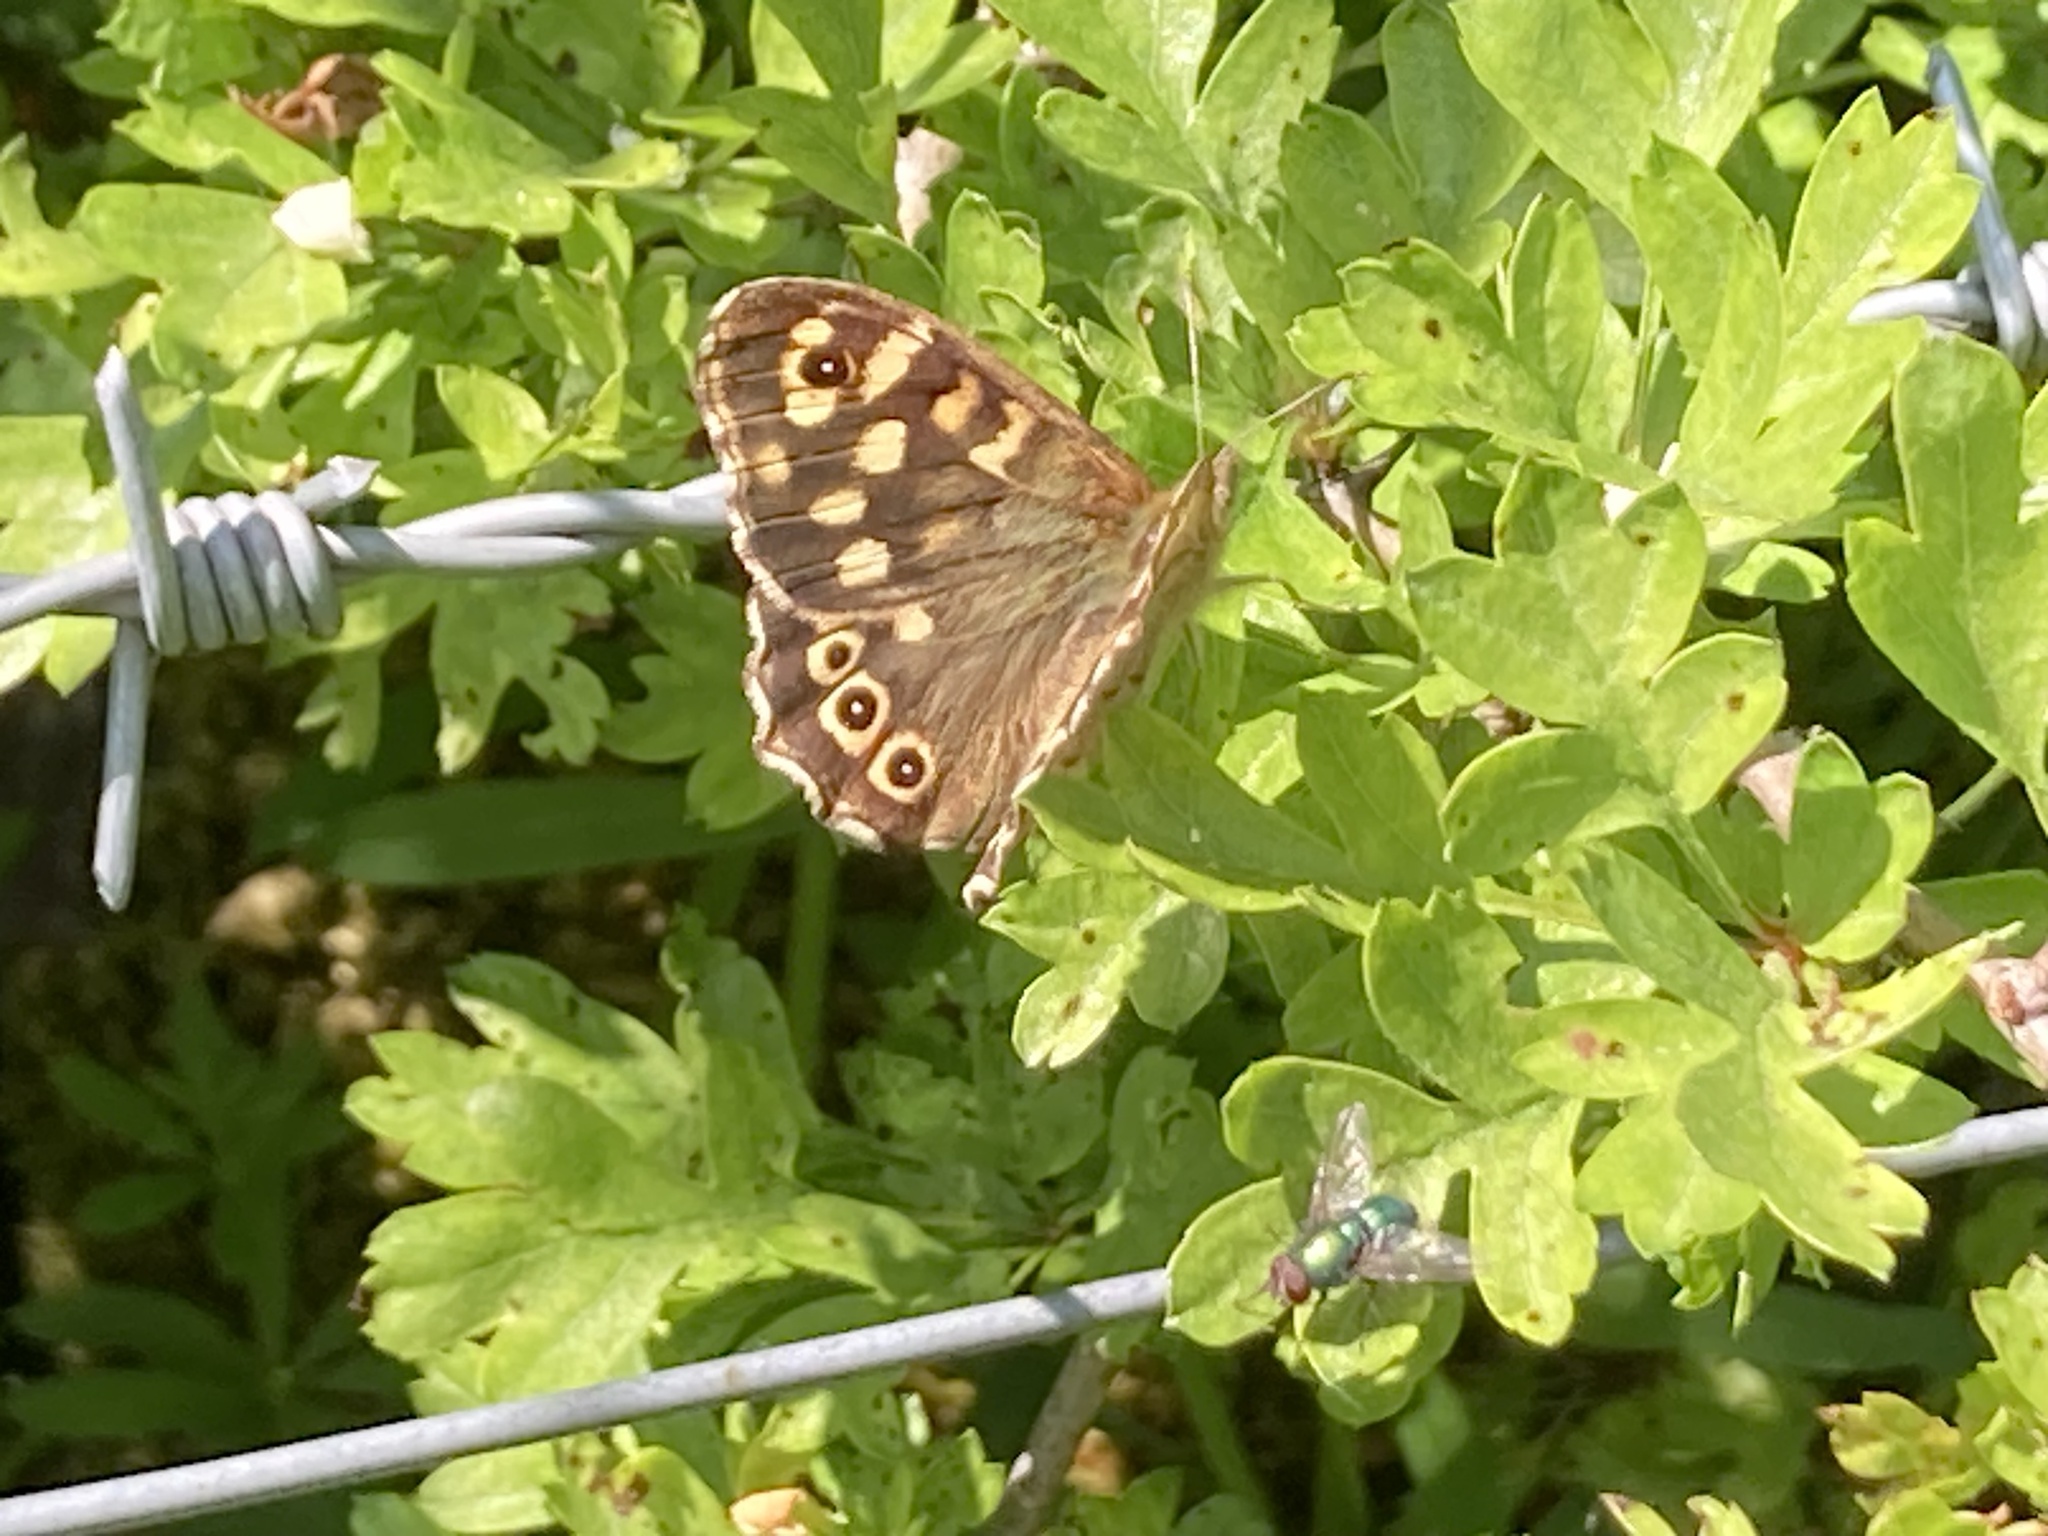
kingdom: Animalia
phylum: Arthropoda
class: Insecta
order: Lepidoptera
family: Nymphalidae
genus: Pararge
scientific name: Pararge aegeria
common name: Speckled wood
